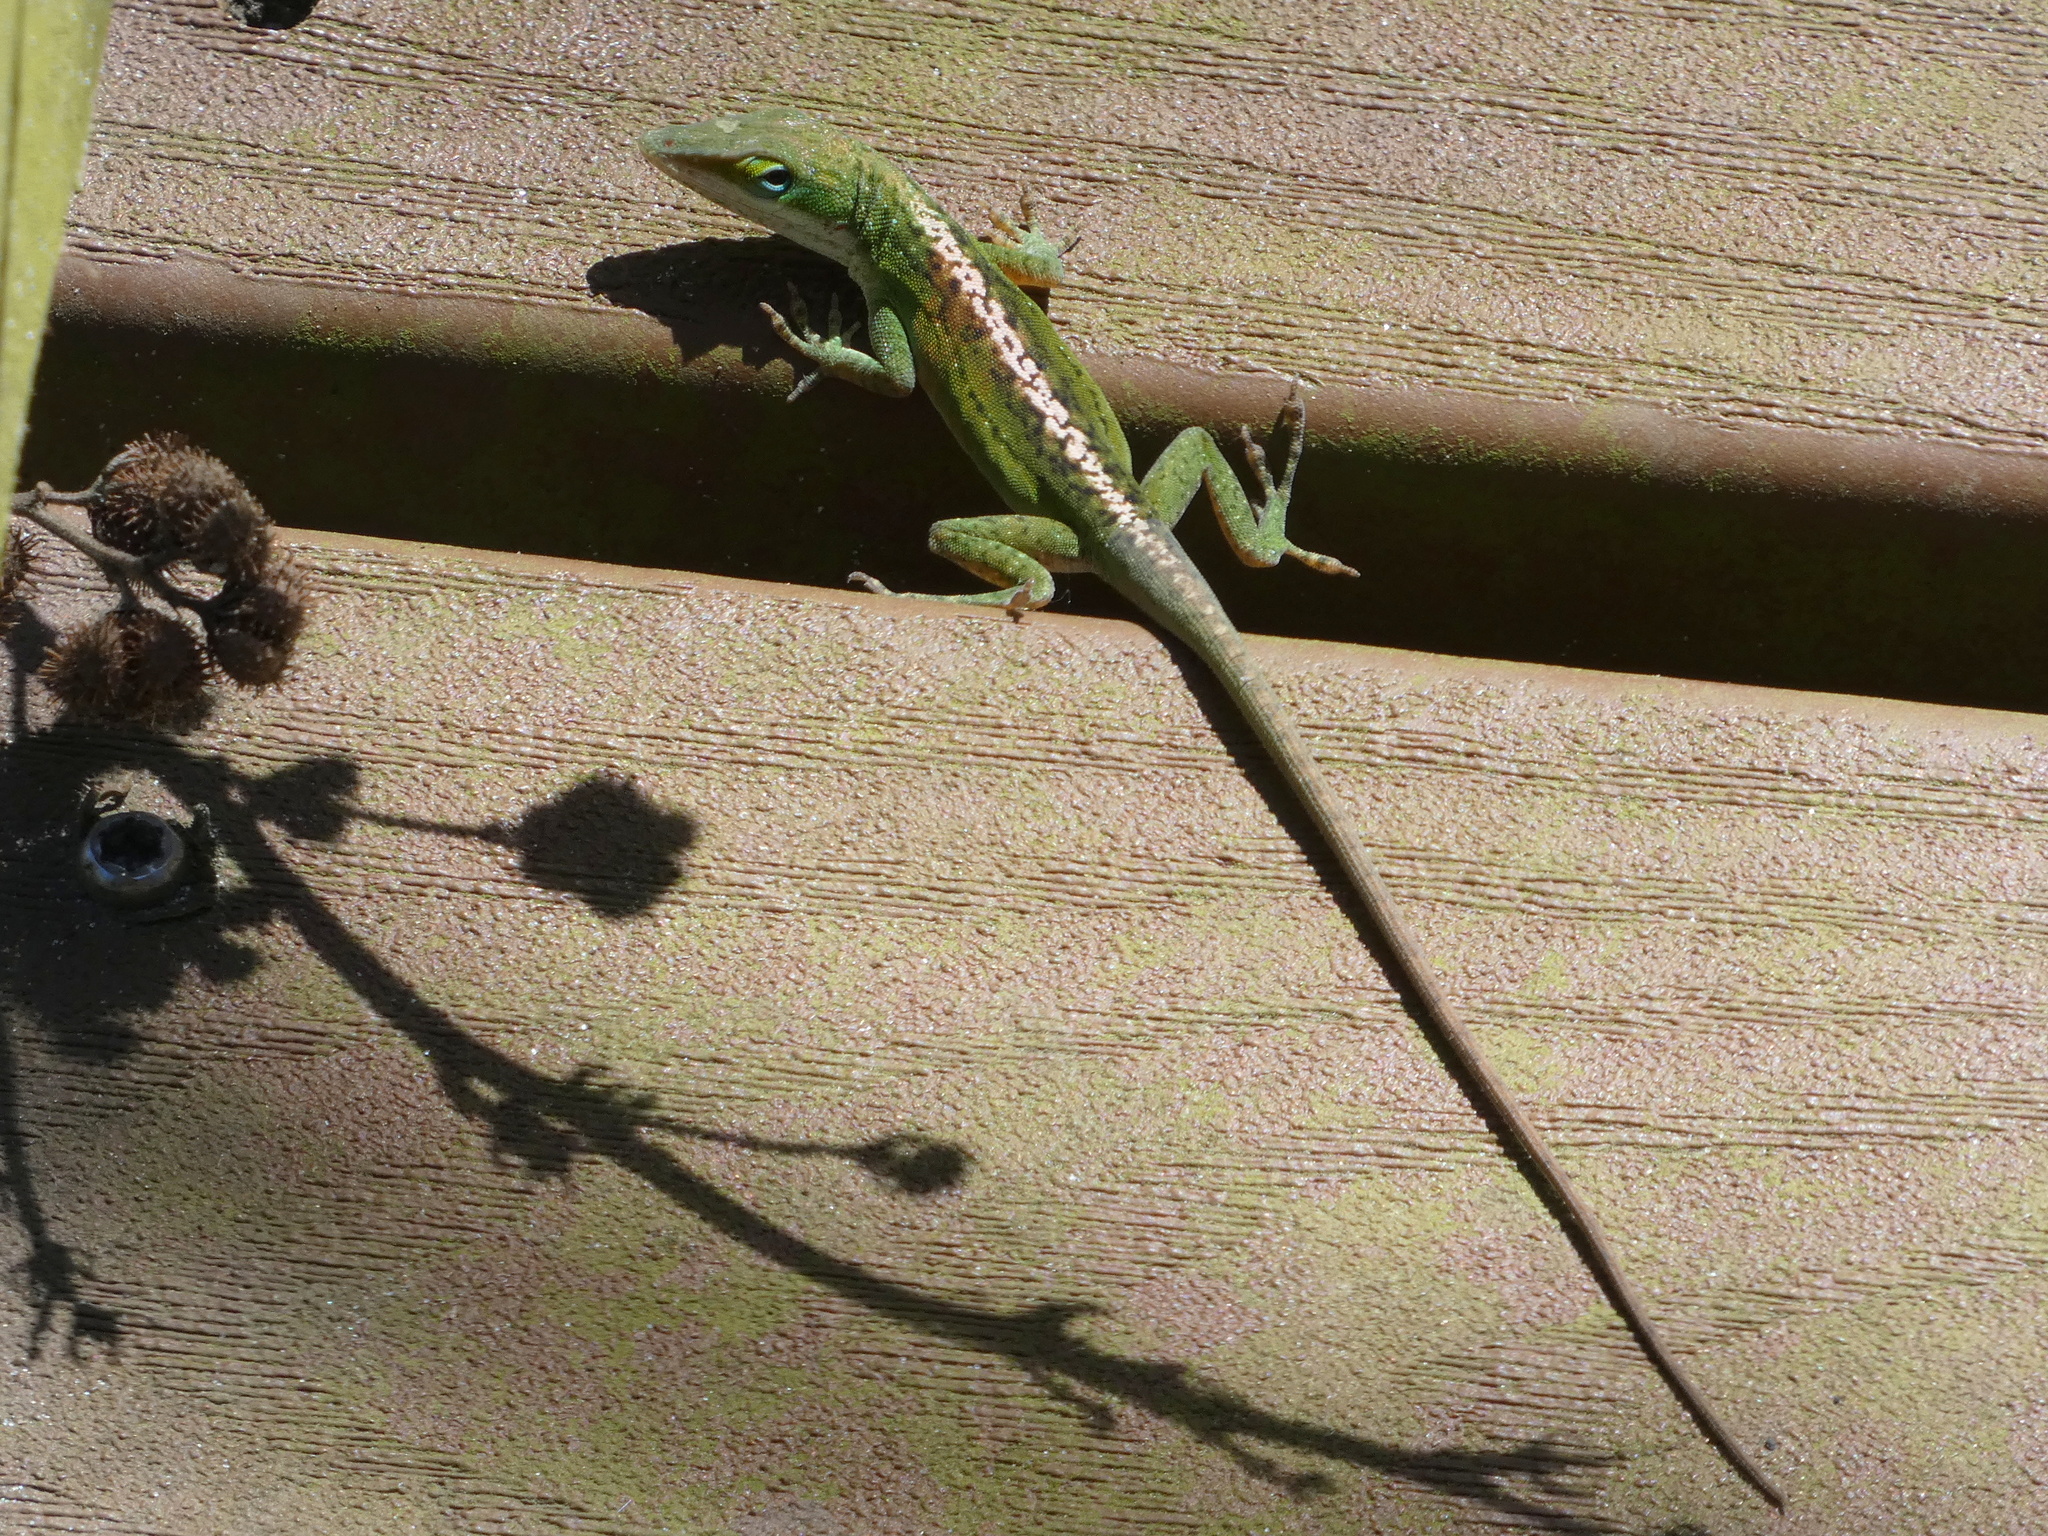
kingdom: Animalia
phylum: Chordata
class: Squamata
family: Dactyloidae
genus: Anolis
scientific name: Anolis carolinensis
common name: Green anole
